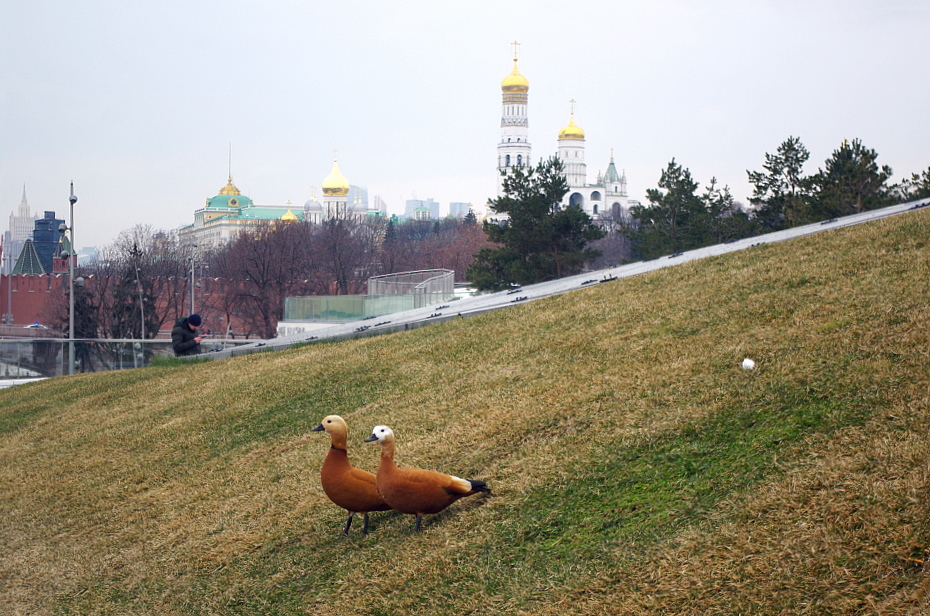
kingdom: Animalia
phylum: Chordata
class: Aves
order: Anseriformes
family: Anatidae
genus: Tadorna
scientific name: Tadorna ferruginea
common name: Ruddy shelduck
